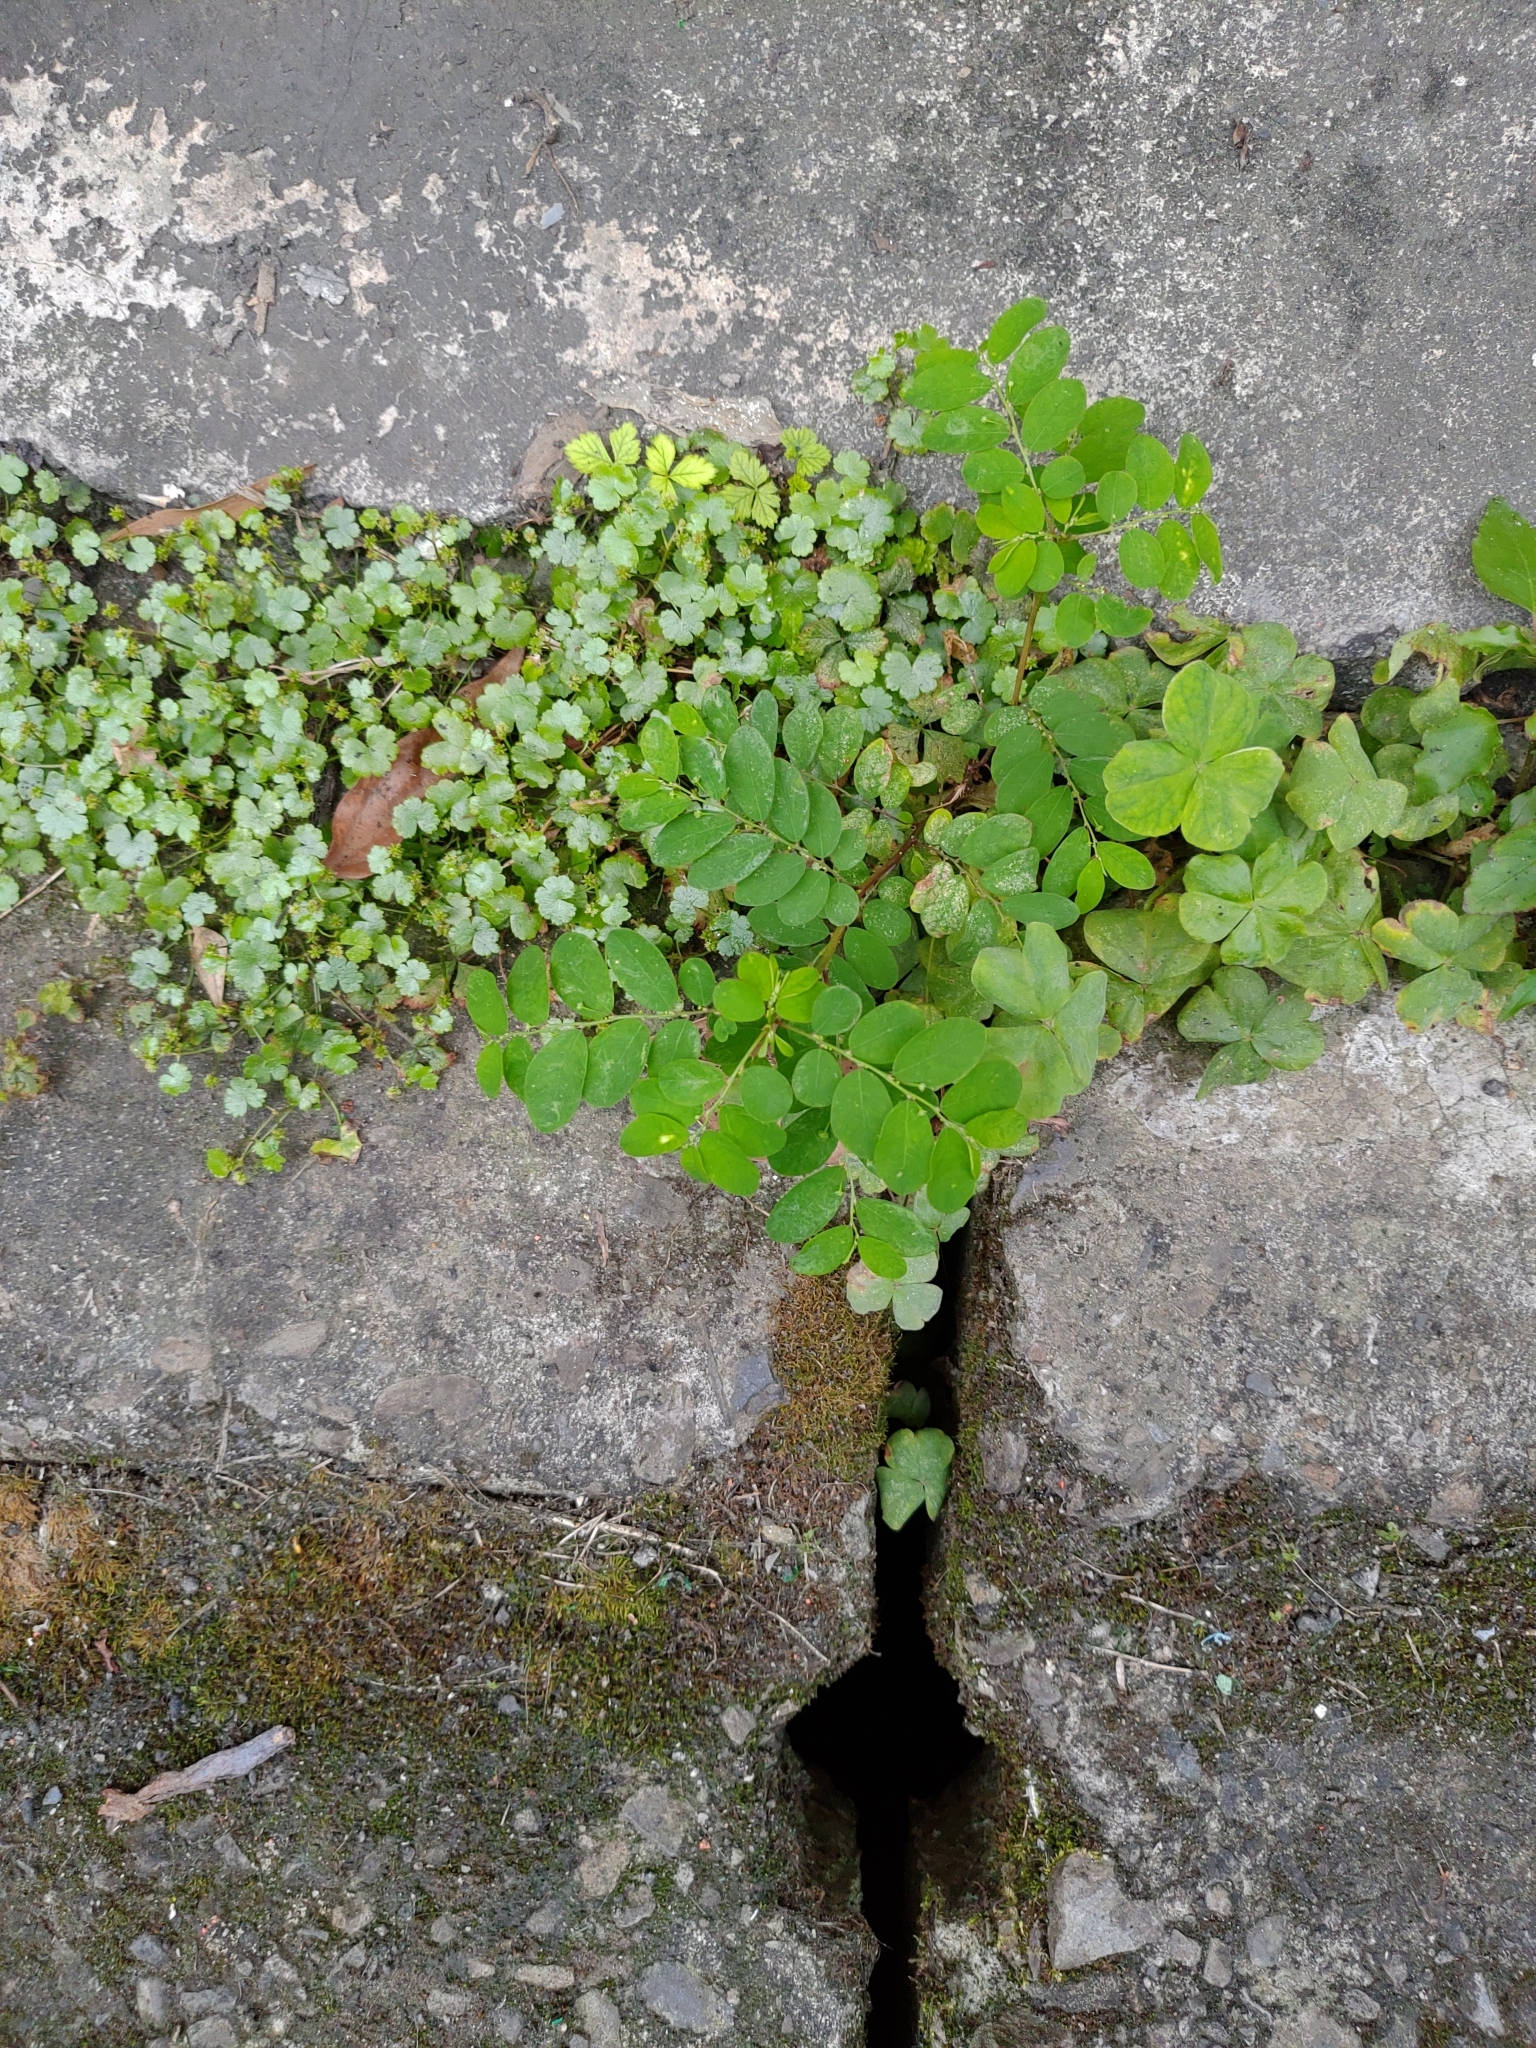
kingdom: Plantae
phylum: Tracheophyta
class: Magnoliopsida
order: Malpighiales
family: Phyllanthaceae
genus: Phyllanthus
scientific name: Phyllanthus tenellus
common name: Mascarene island leaf-flower
